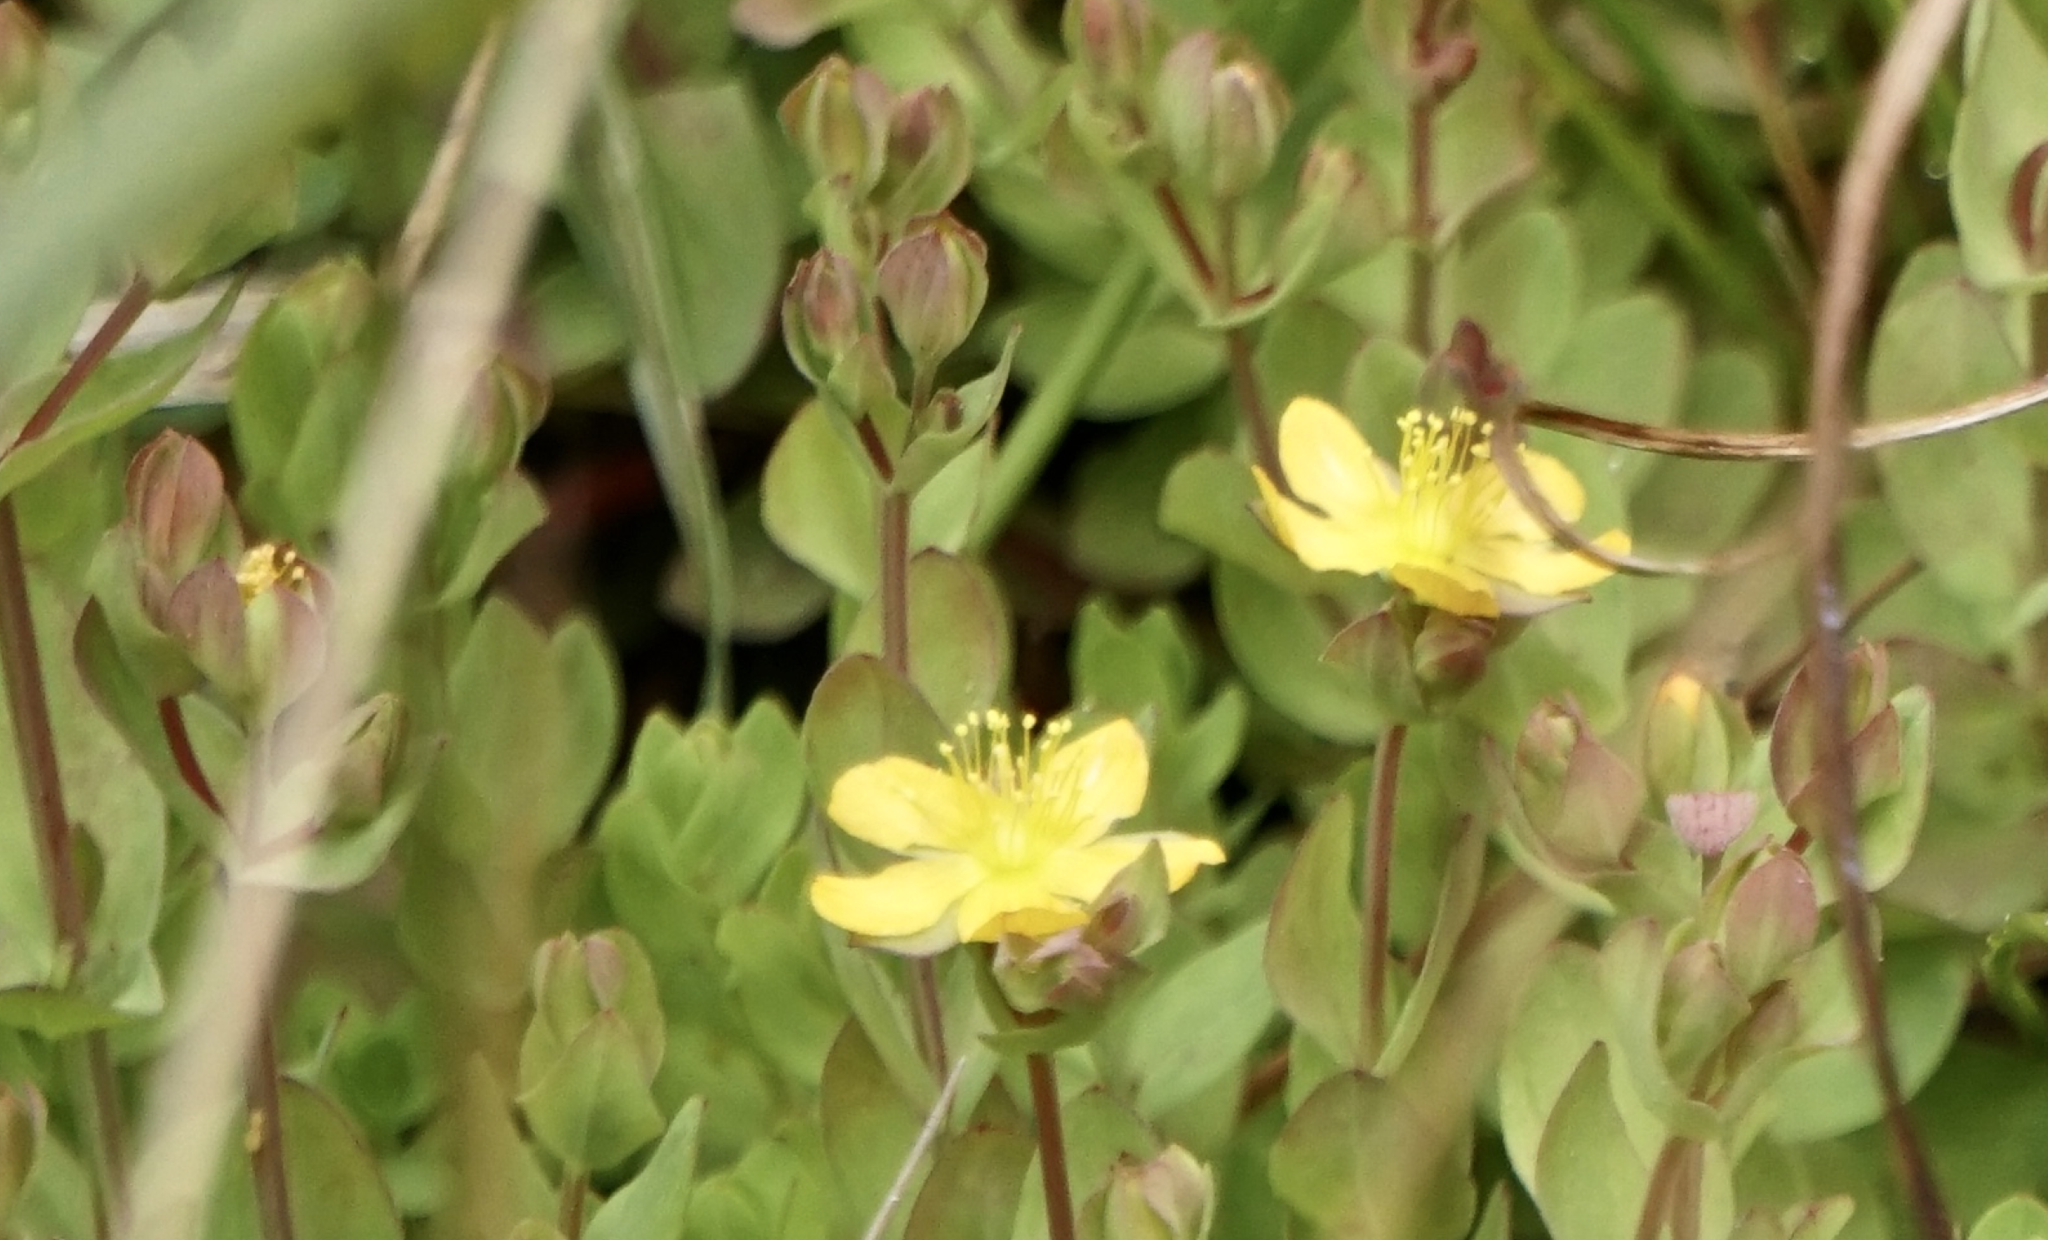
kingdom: Plantae
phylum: Tracheophyta
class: Magnoliopsida
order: Malpighiales
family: Hypericaceae
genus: Hypericum
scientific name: Hypericum anagalloides
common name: Bog st. john's-wort
